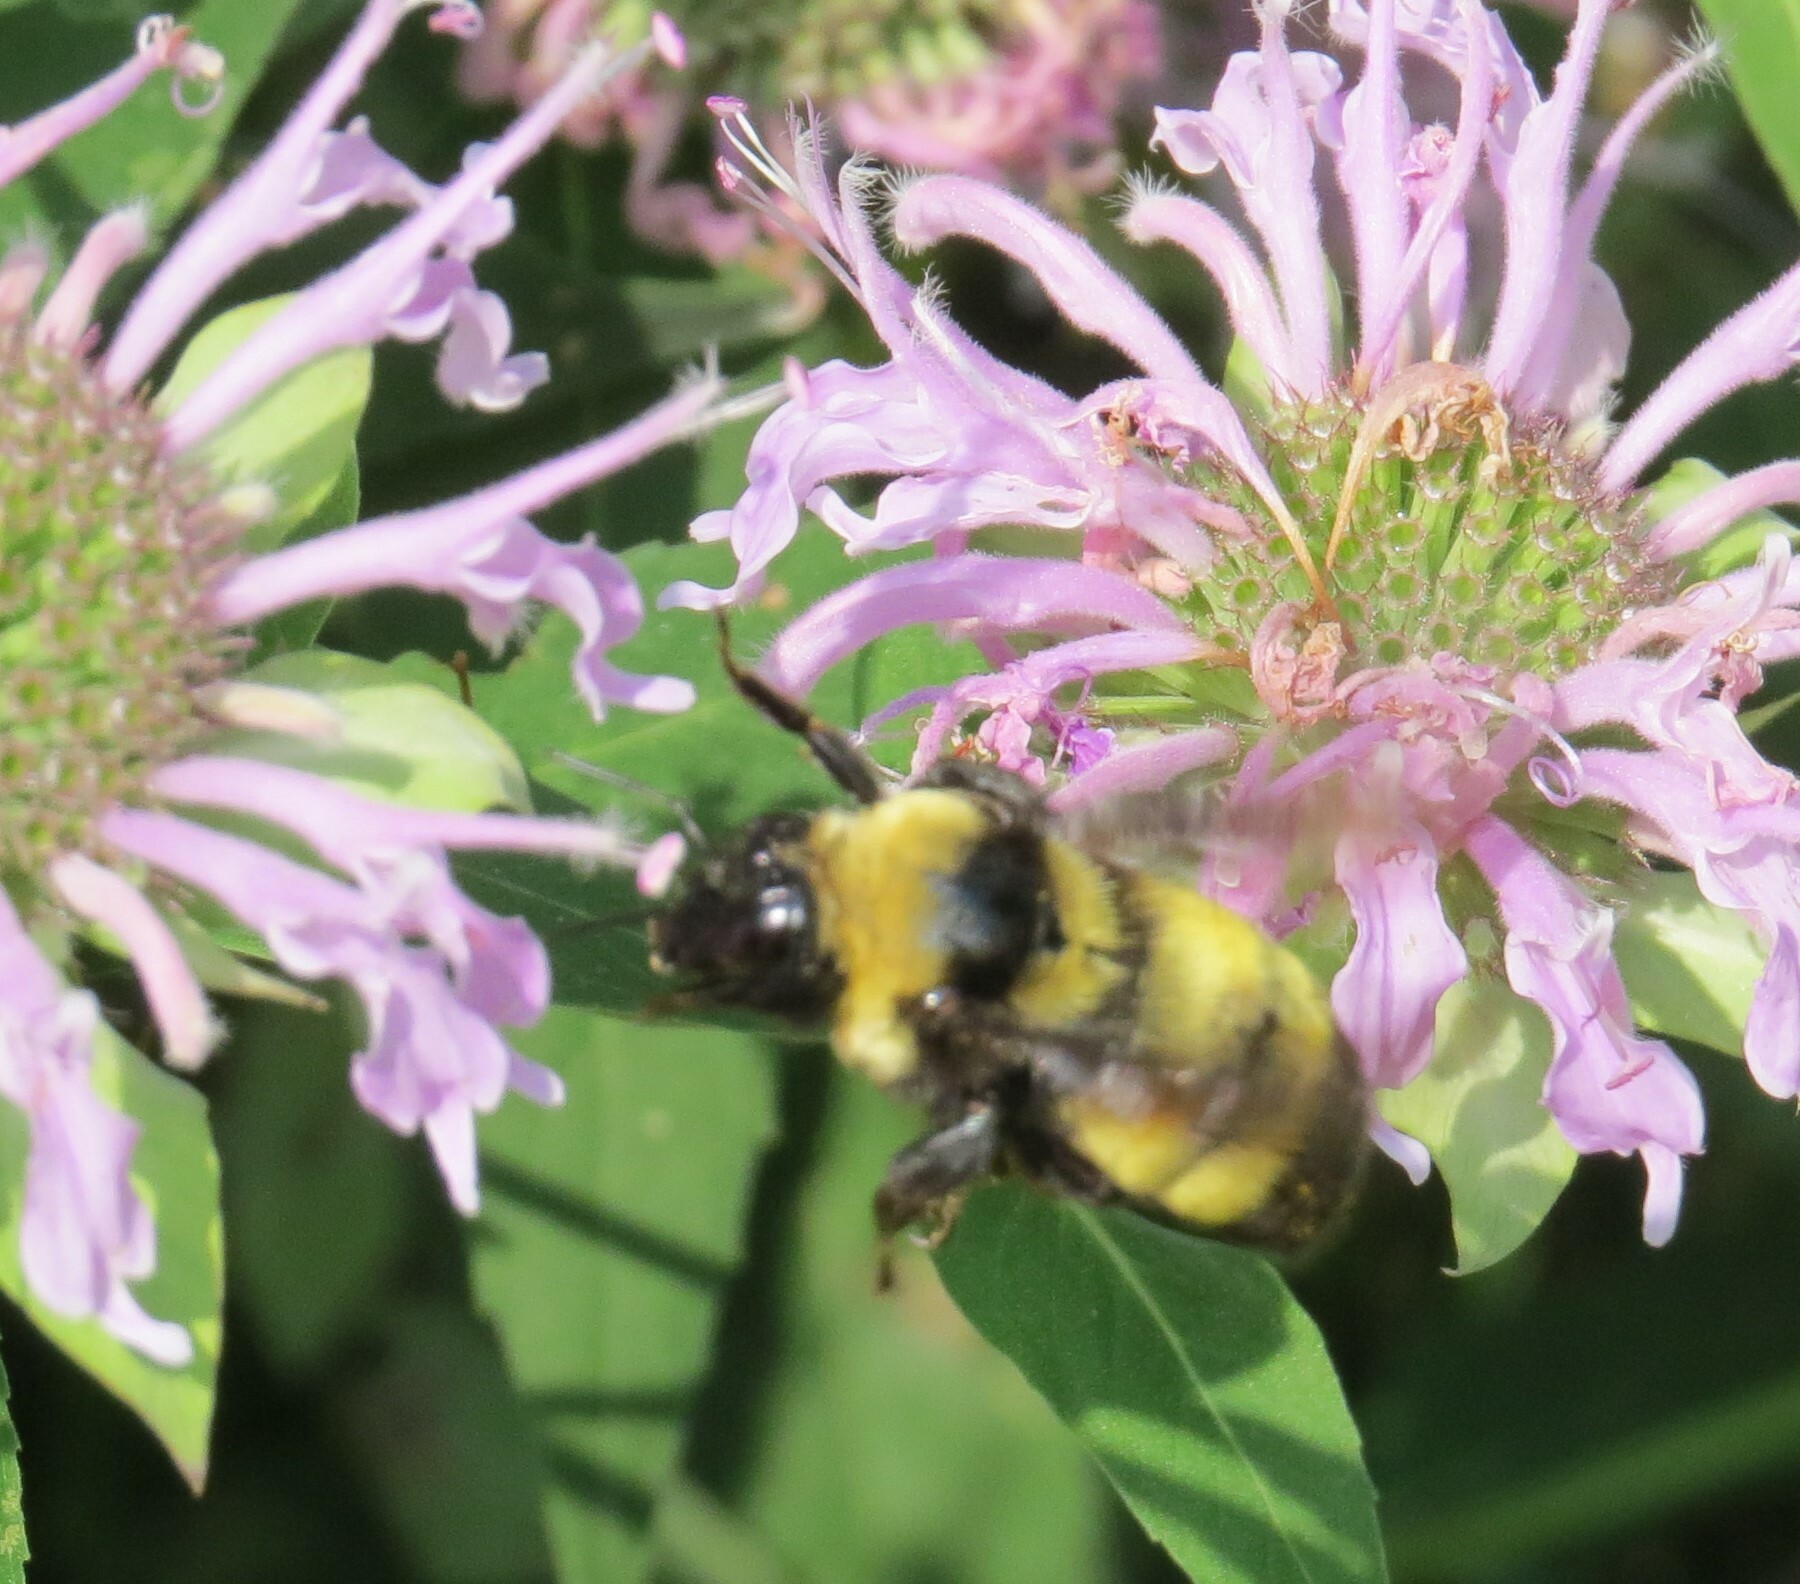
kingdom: Animalia
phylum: Arthropoda
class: Insecta
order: Hymenoptera
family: Apidae
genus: Bombus
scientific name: Bombus auricomus
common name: Black and gold bumble bee
